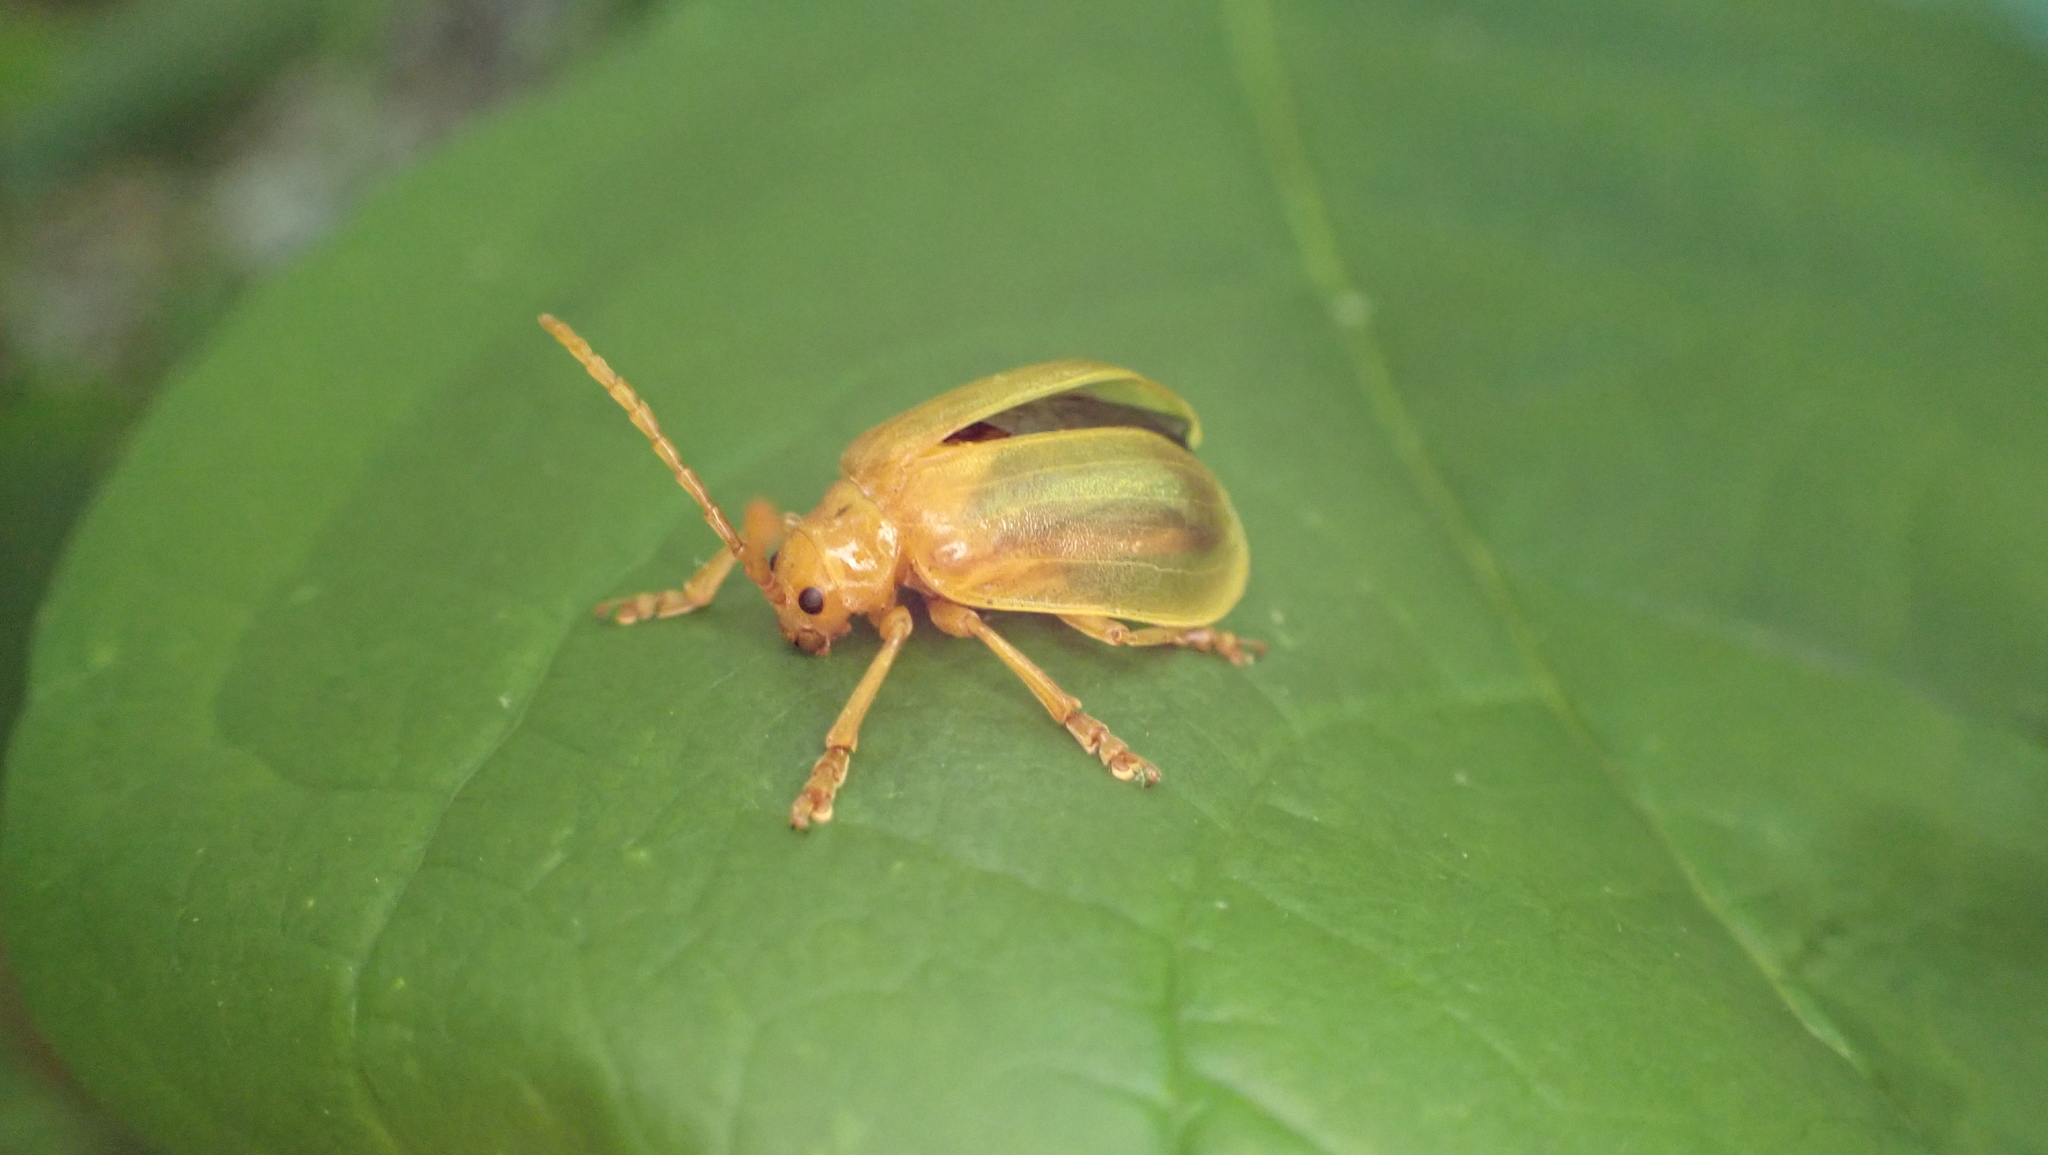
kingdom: Animalia
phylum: Arthropoda
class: Insecta
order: Coleoptera
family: Chrysomelidae
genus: Monocesta
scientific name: Monocesta coryli
